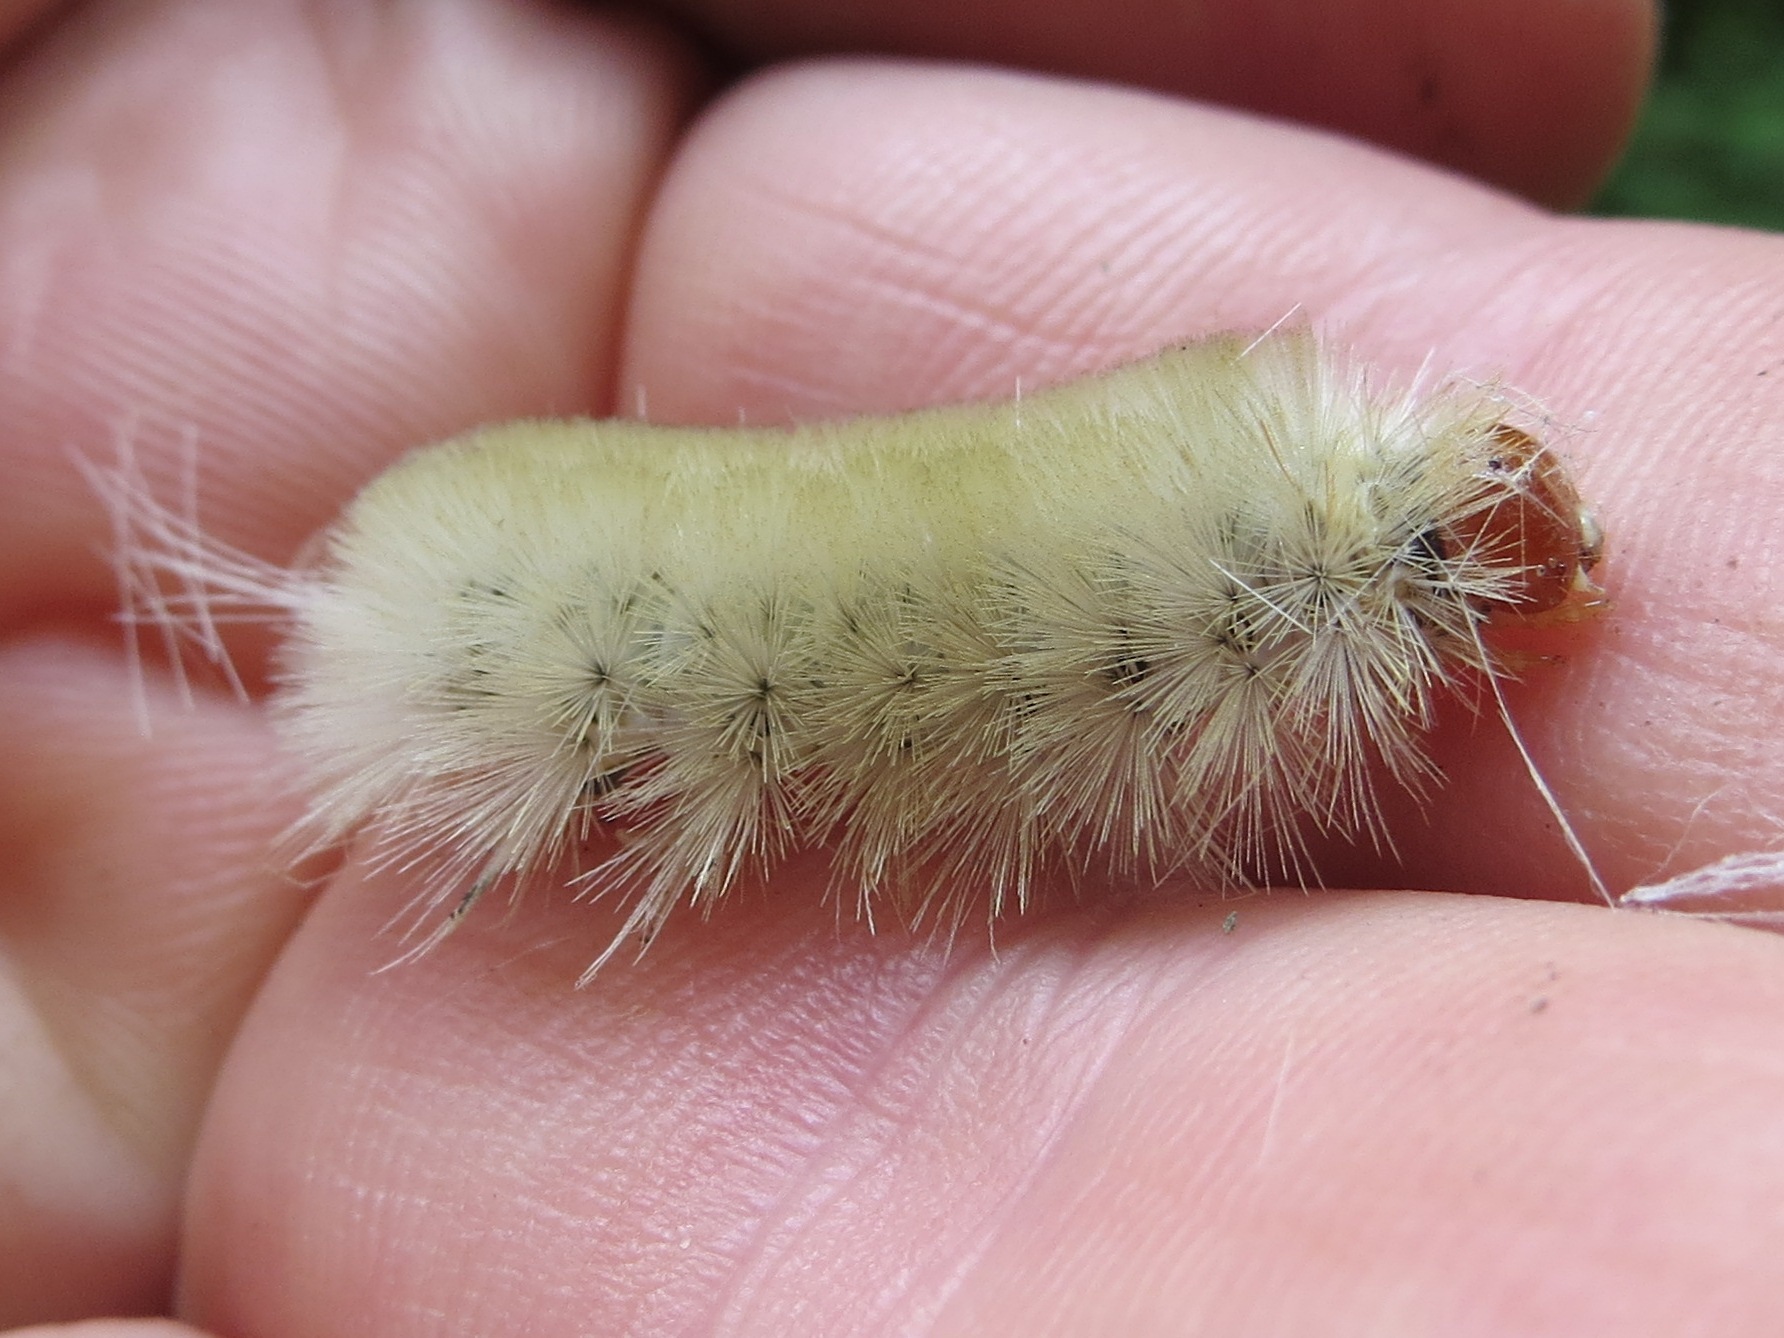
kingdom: Animalia
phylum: Arthropoda
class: Insecta
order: Lepidoptera
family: Erebidae
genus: Halysidota
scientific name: Halysidota harrisii
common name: Sycamore tussock moth
